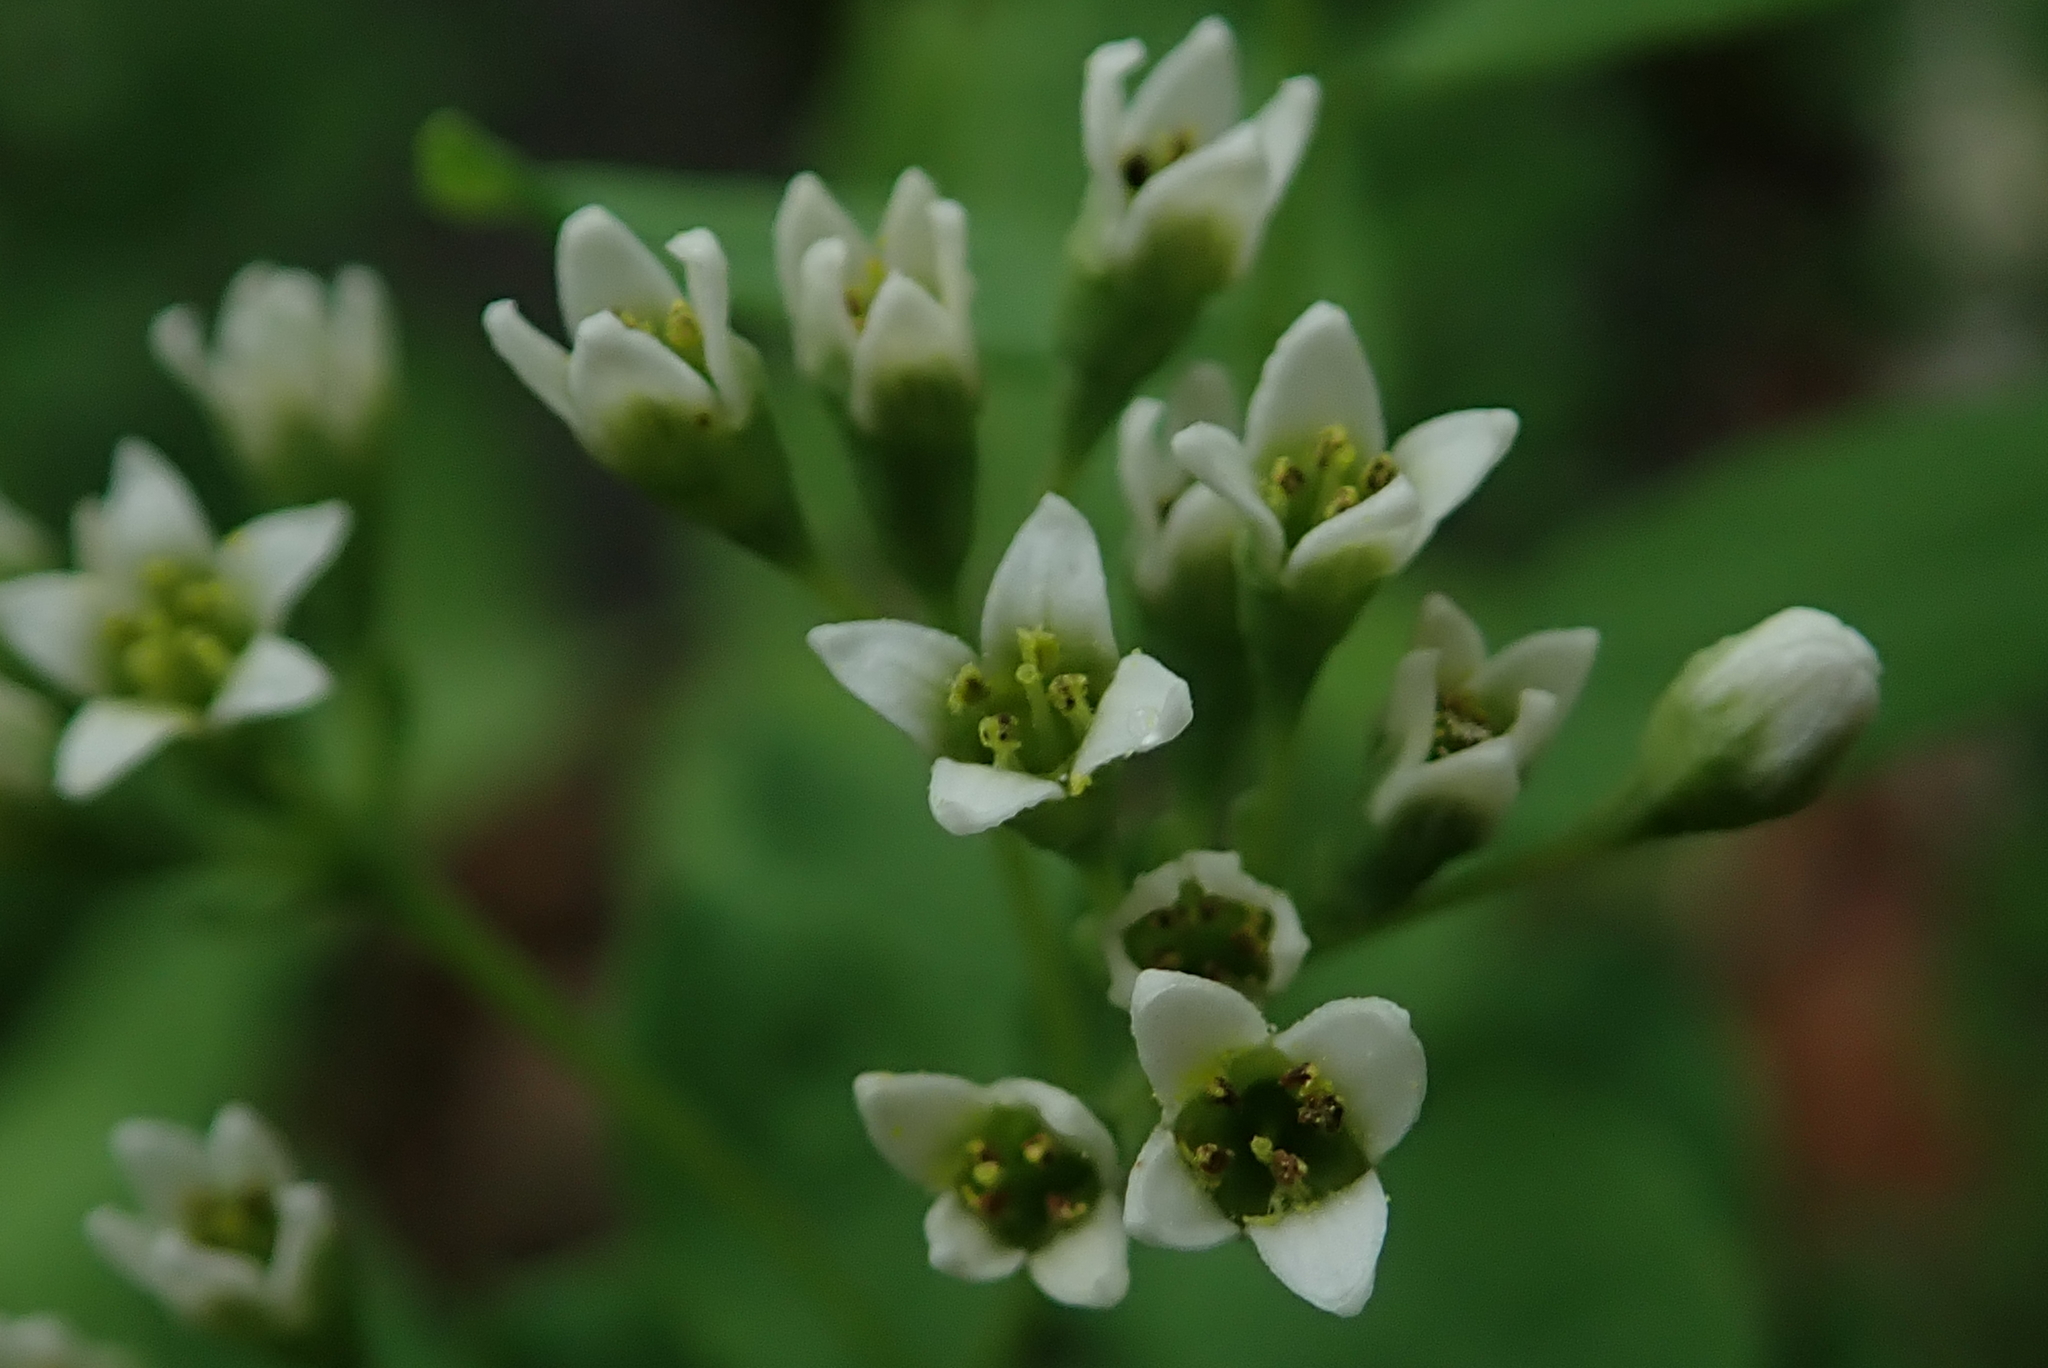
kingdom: Plantae
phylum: Tracheophyta
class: Magnoliopsida
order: Santalales
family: Comandraceae
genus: Comandra
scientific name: Comandra umbellata
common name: Bastard toadflax
